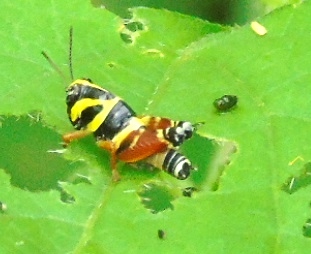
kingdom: Animalia
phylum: Arthropoda
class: Insecta
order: Orthoptera
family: Acrididae
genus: Aidemona
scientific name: Aidemona azteca
